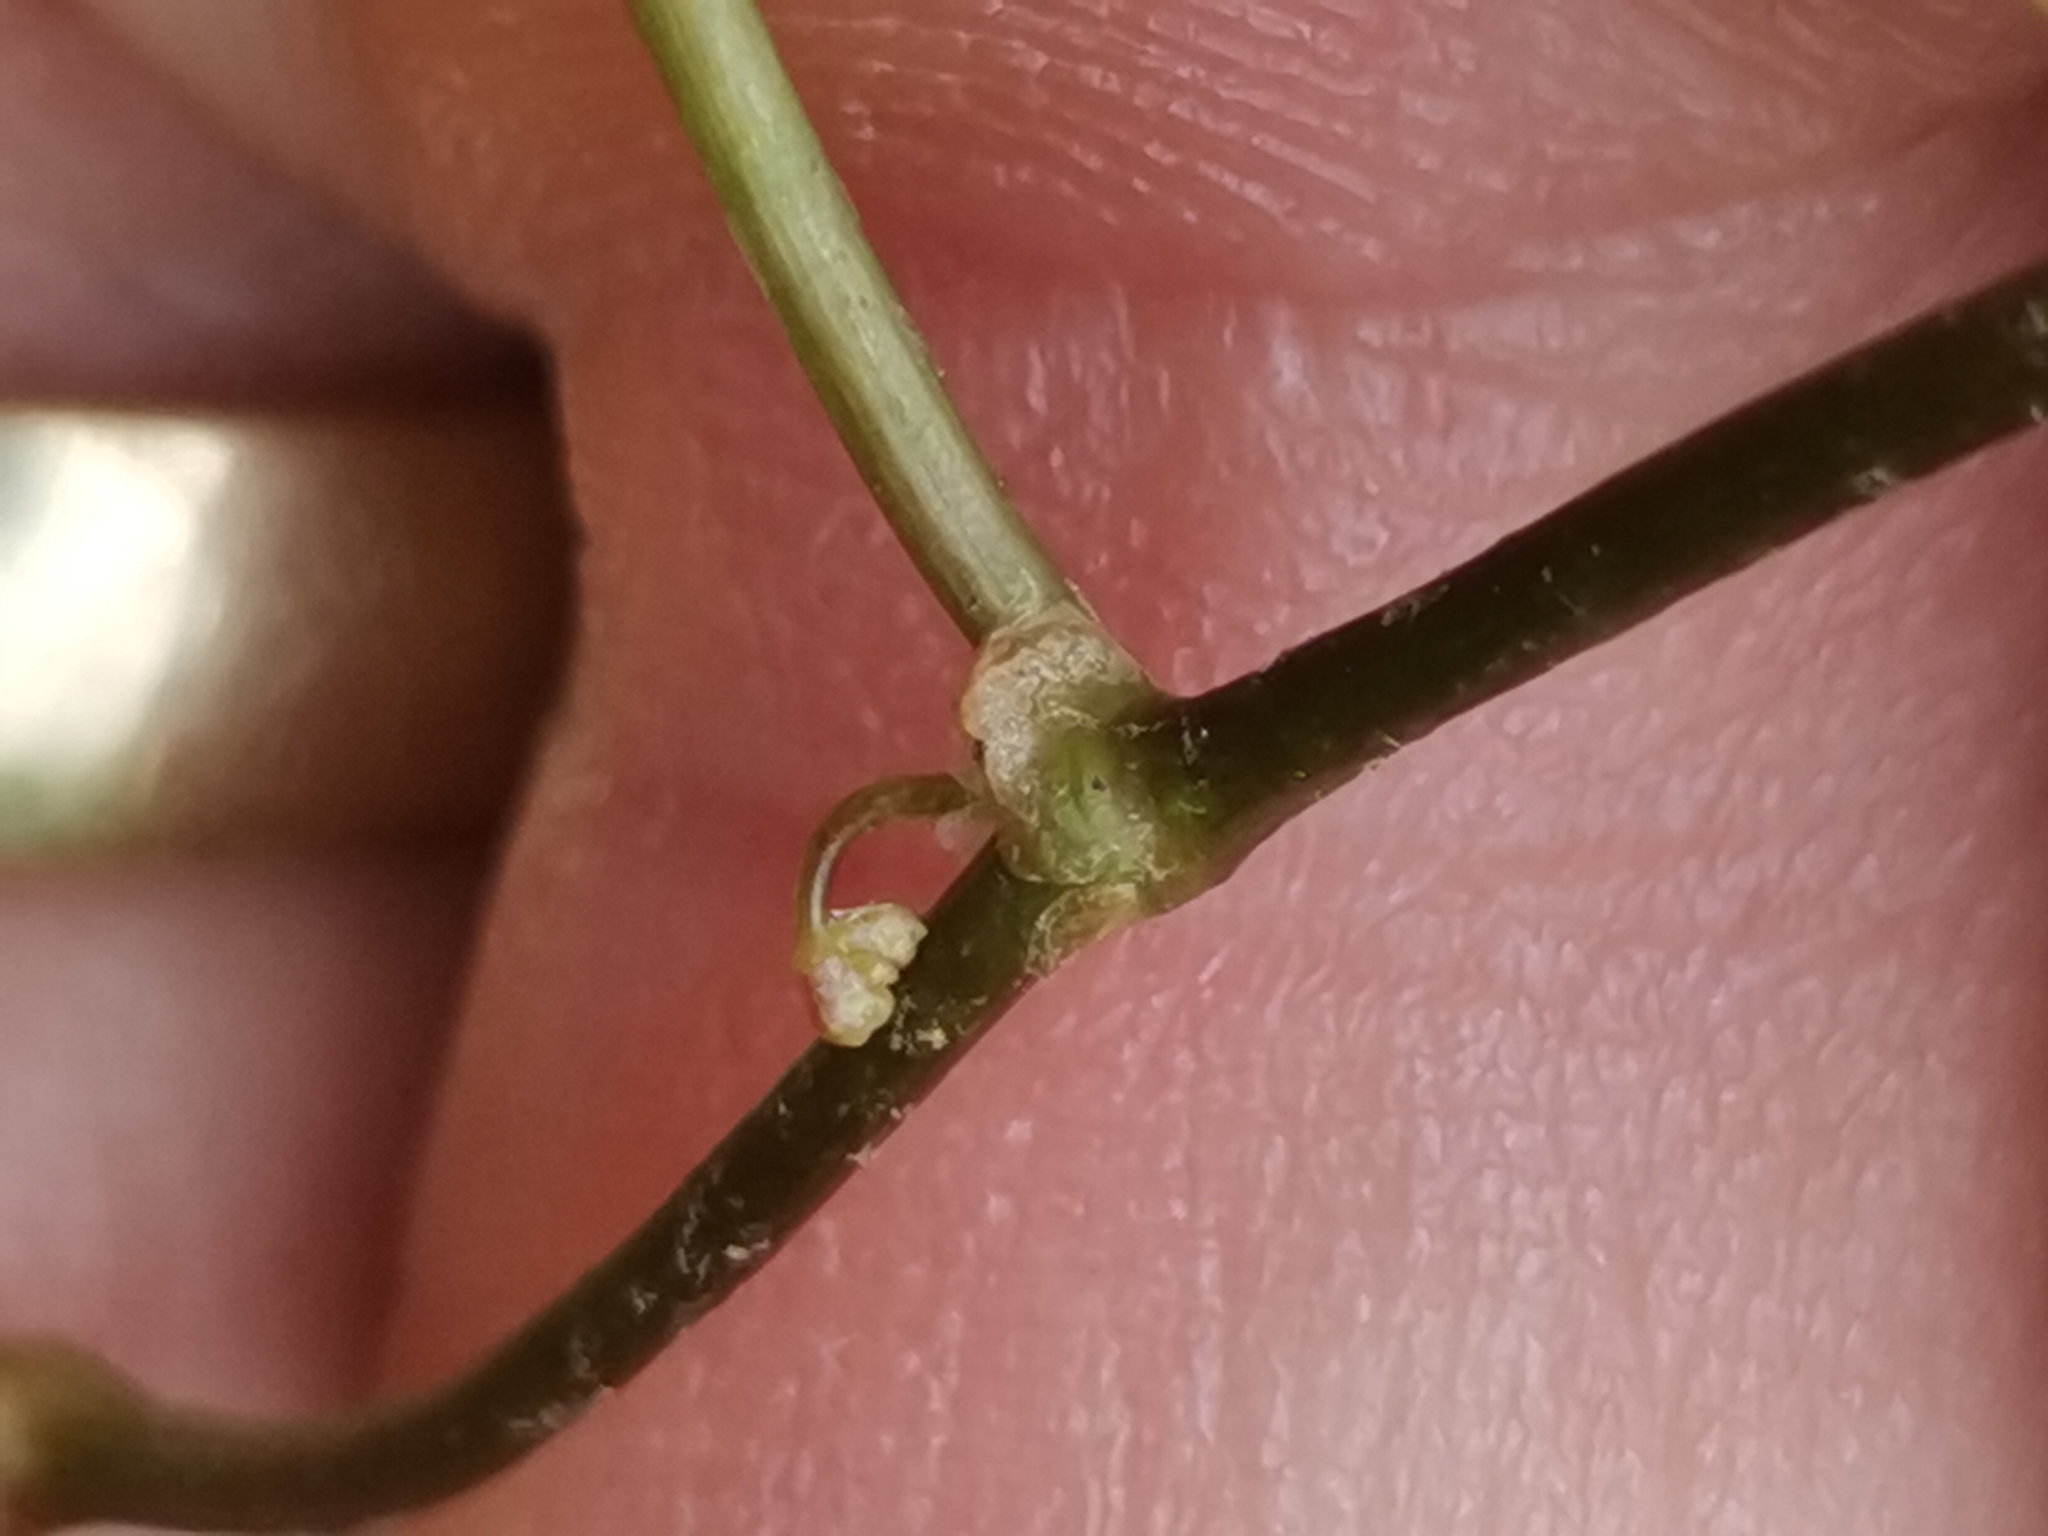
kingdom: Plantae
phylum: Tracheophyta
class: Magnoliopsida
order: Apiales
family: Araliaceae
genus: Hydrocotyle
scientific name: Hydrocotyle vulgaris
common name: Marsh pennywort
